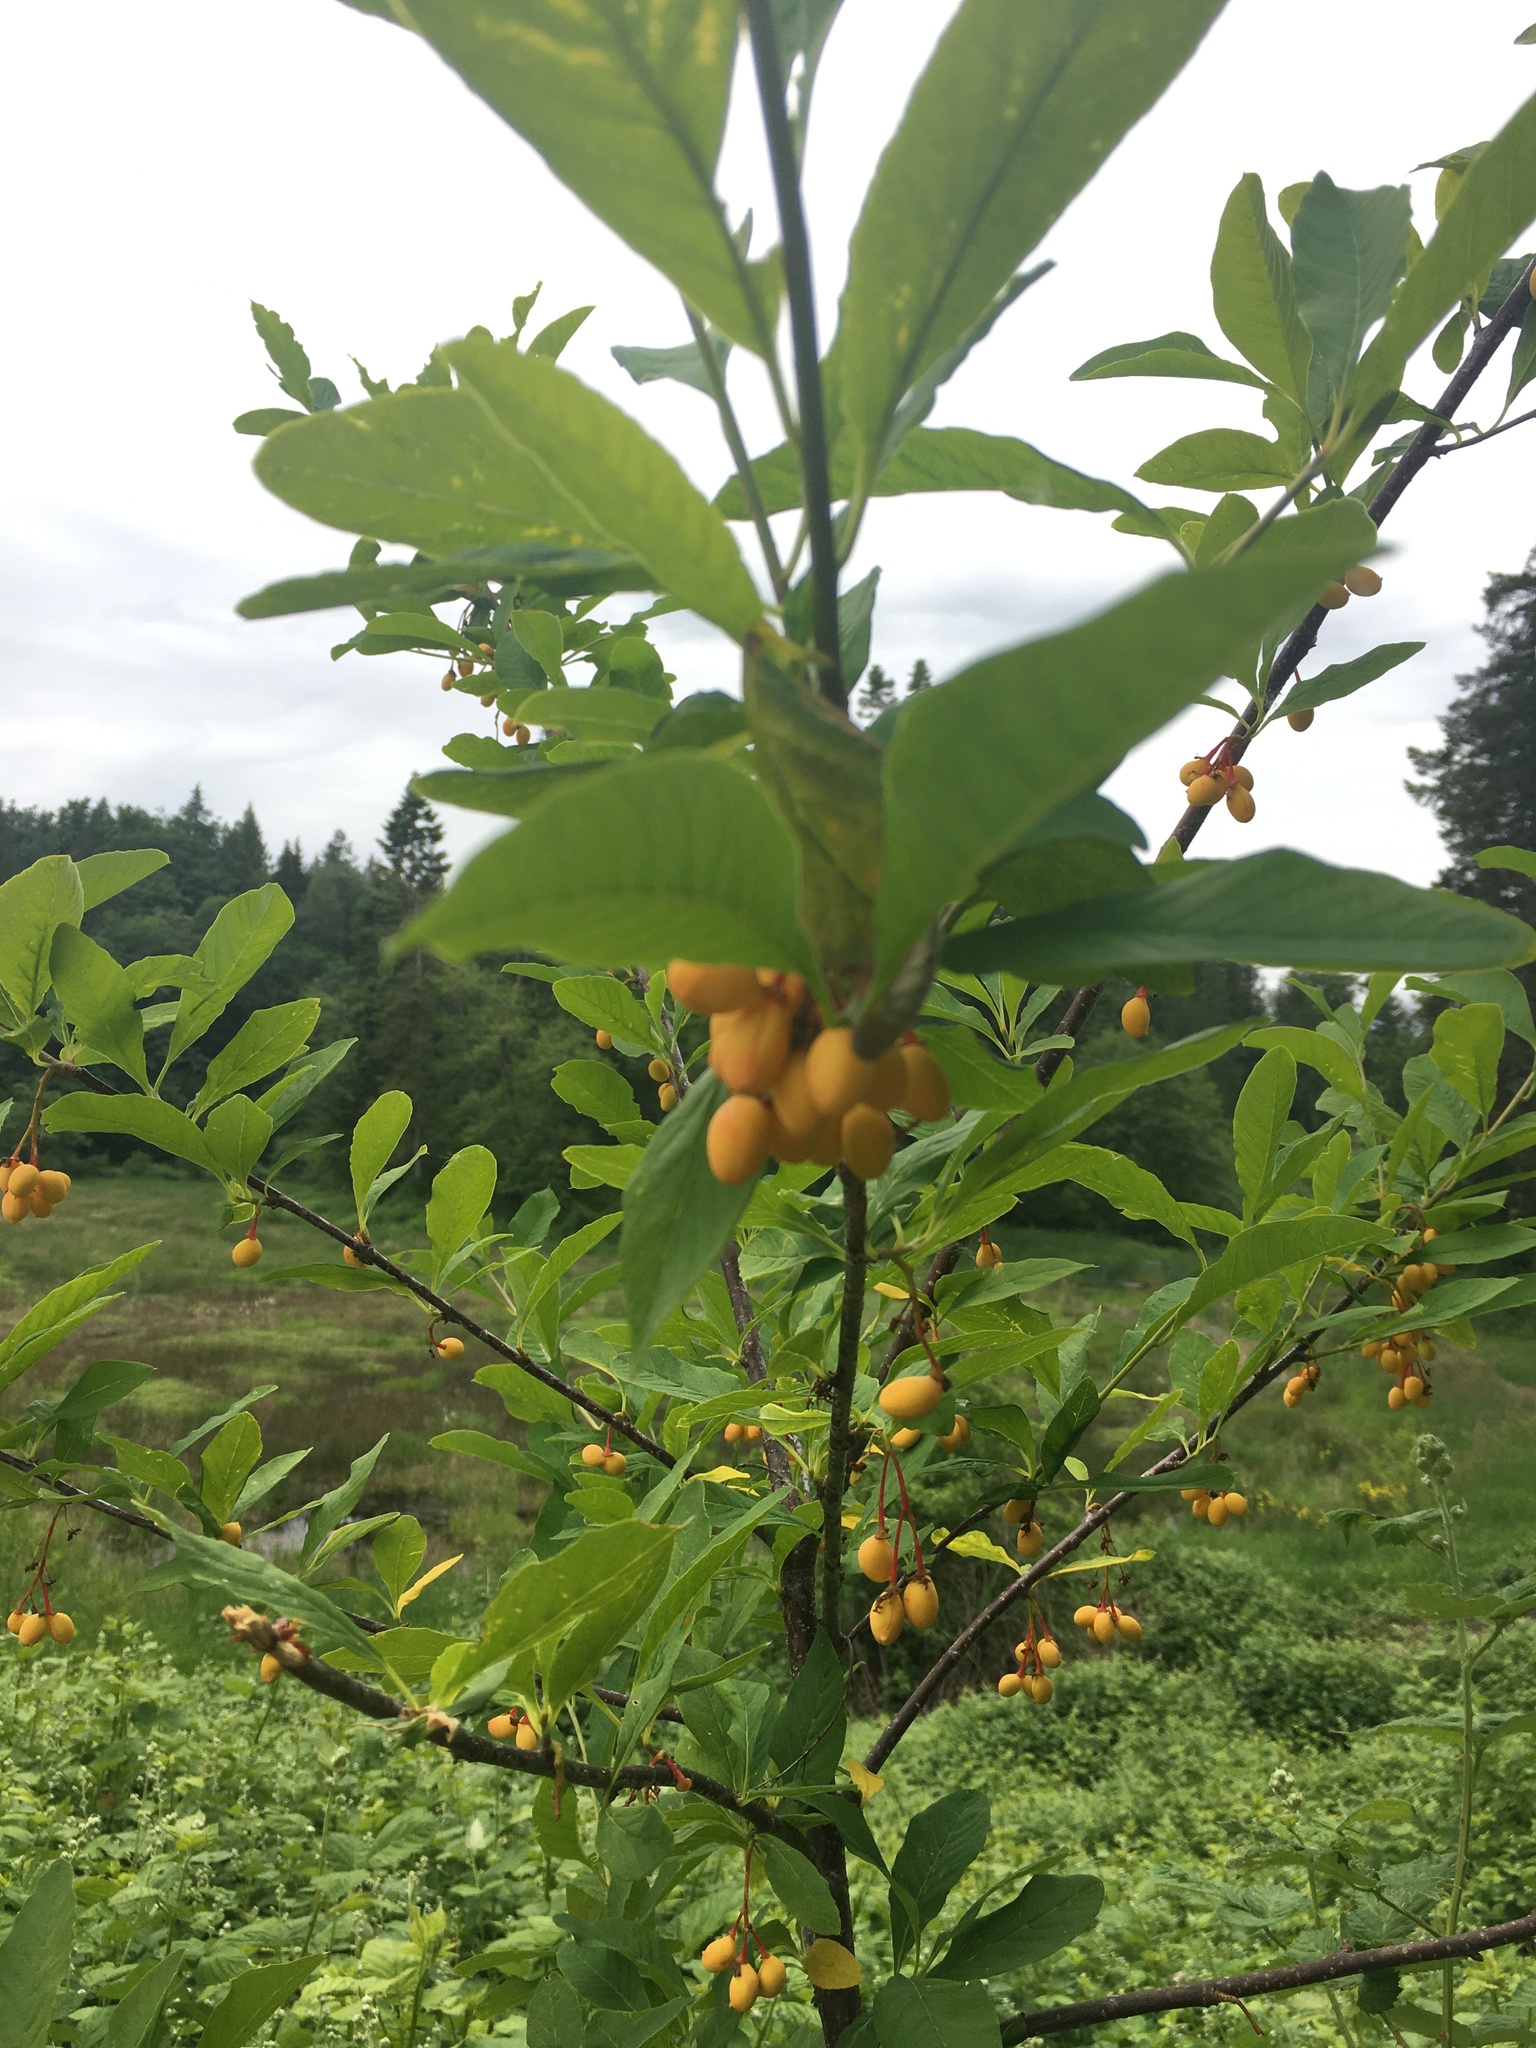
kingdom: Plantae
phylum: Tracheophyta
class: Magnoliopsida
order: Rosales
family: Rosaceae
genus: Oemleria
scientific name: Oemleria cerasiformis
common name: Osoberry
